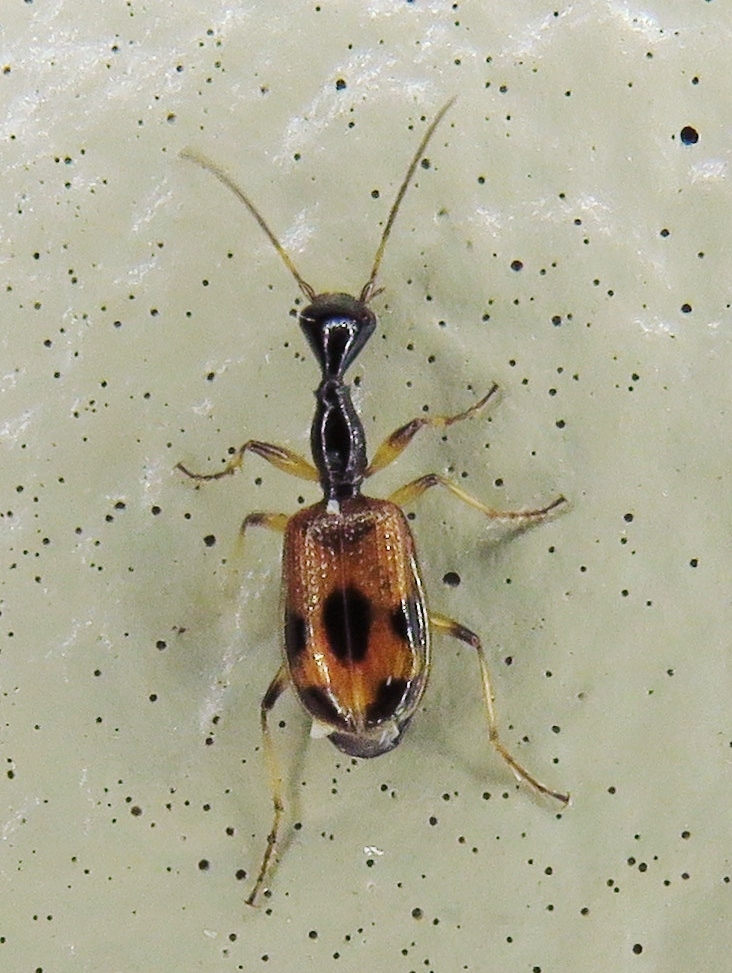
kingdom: Animalia
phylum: Arthropoda
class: Insecta
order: Coleoptera
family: Carabidae
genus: Colliuris
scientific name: Colliuris pensylvanica
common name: Long-necked ground beetle
